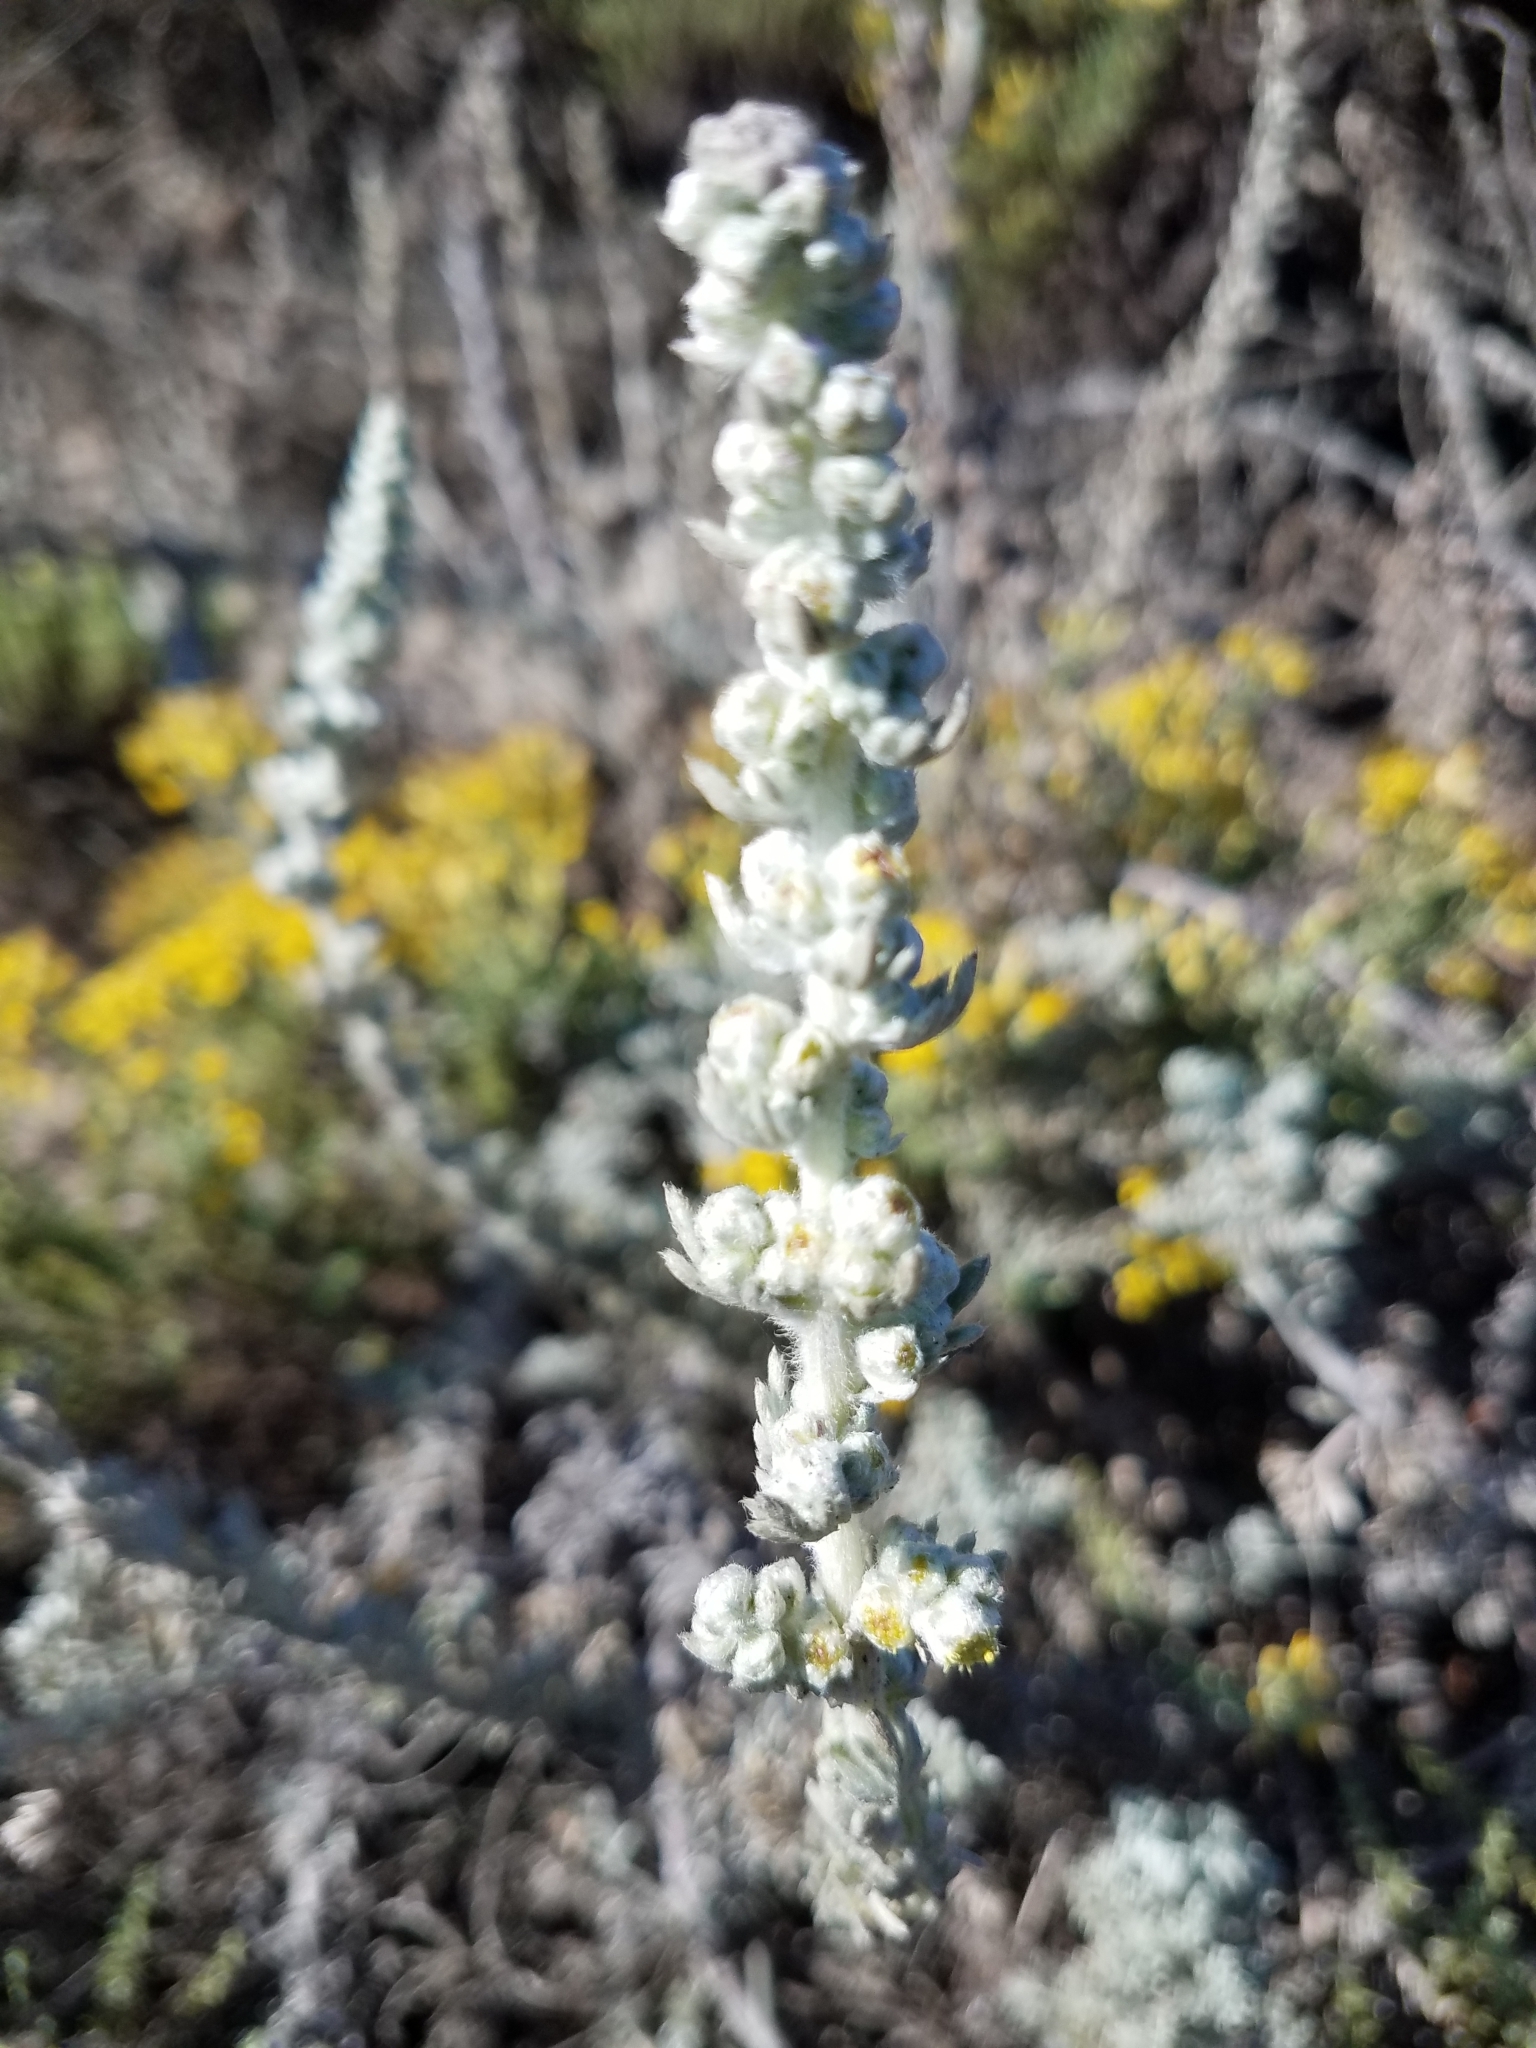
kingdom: Plantae
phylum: Tracheophyta
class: Magnoliopsida
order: Asterales
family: Asteraceae
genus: Artemisia
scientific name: Artemisia pycnocephala
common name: Coastal sagewort
